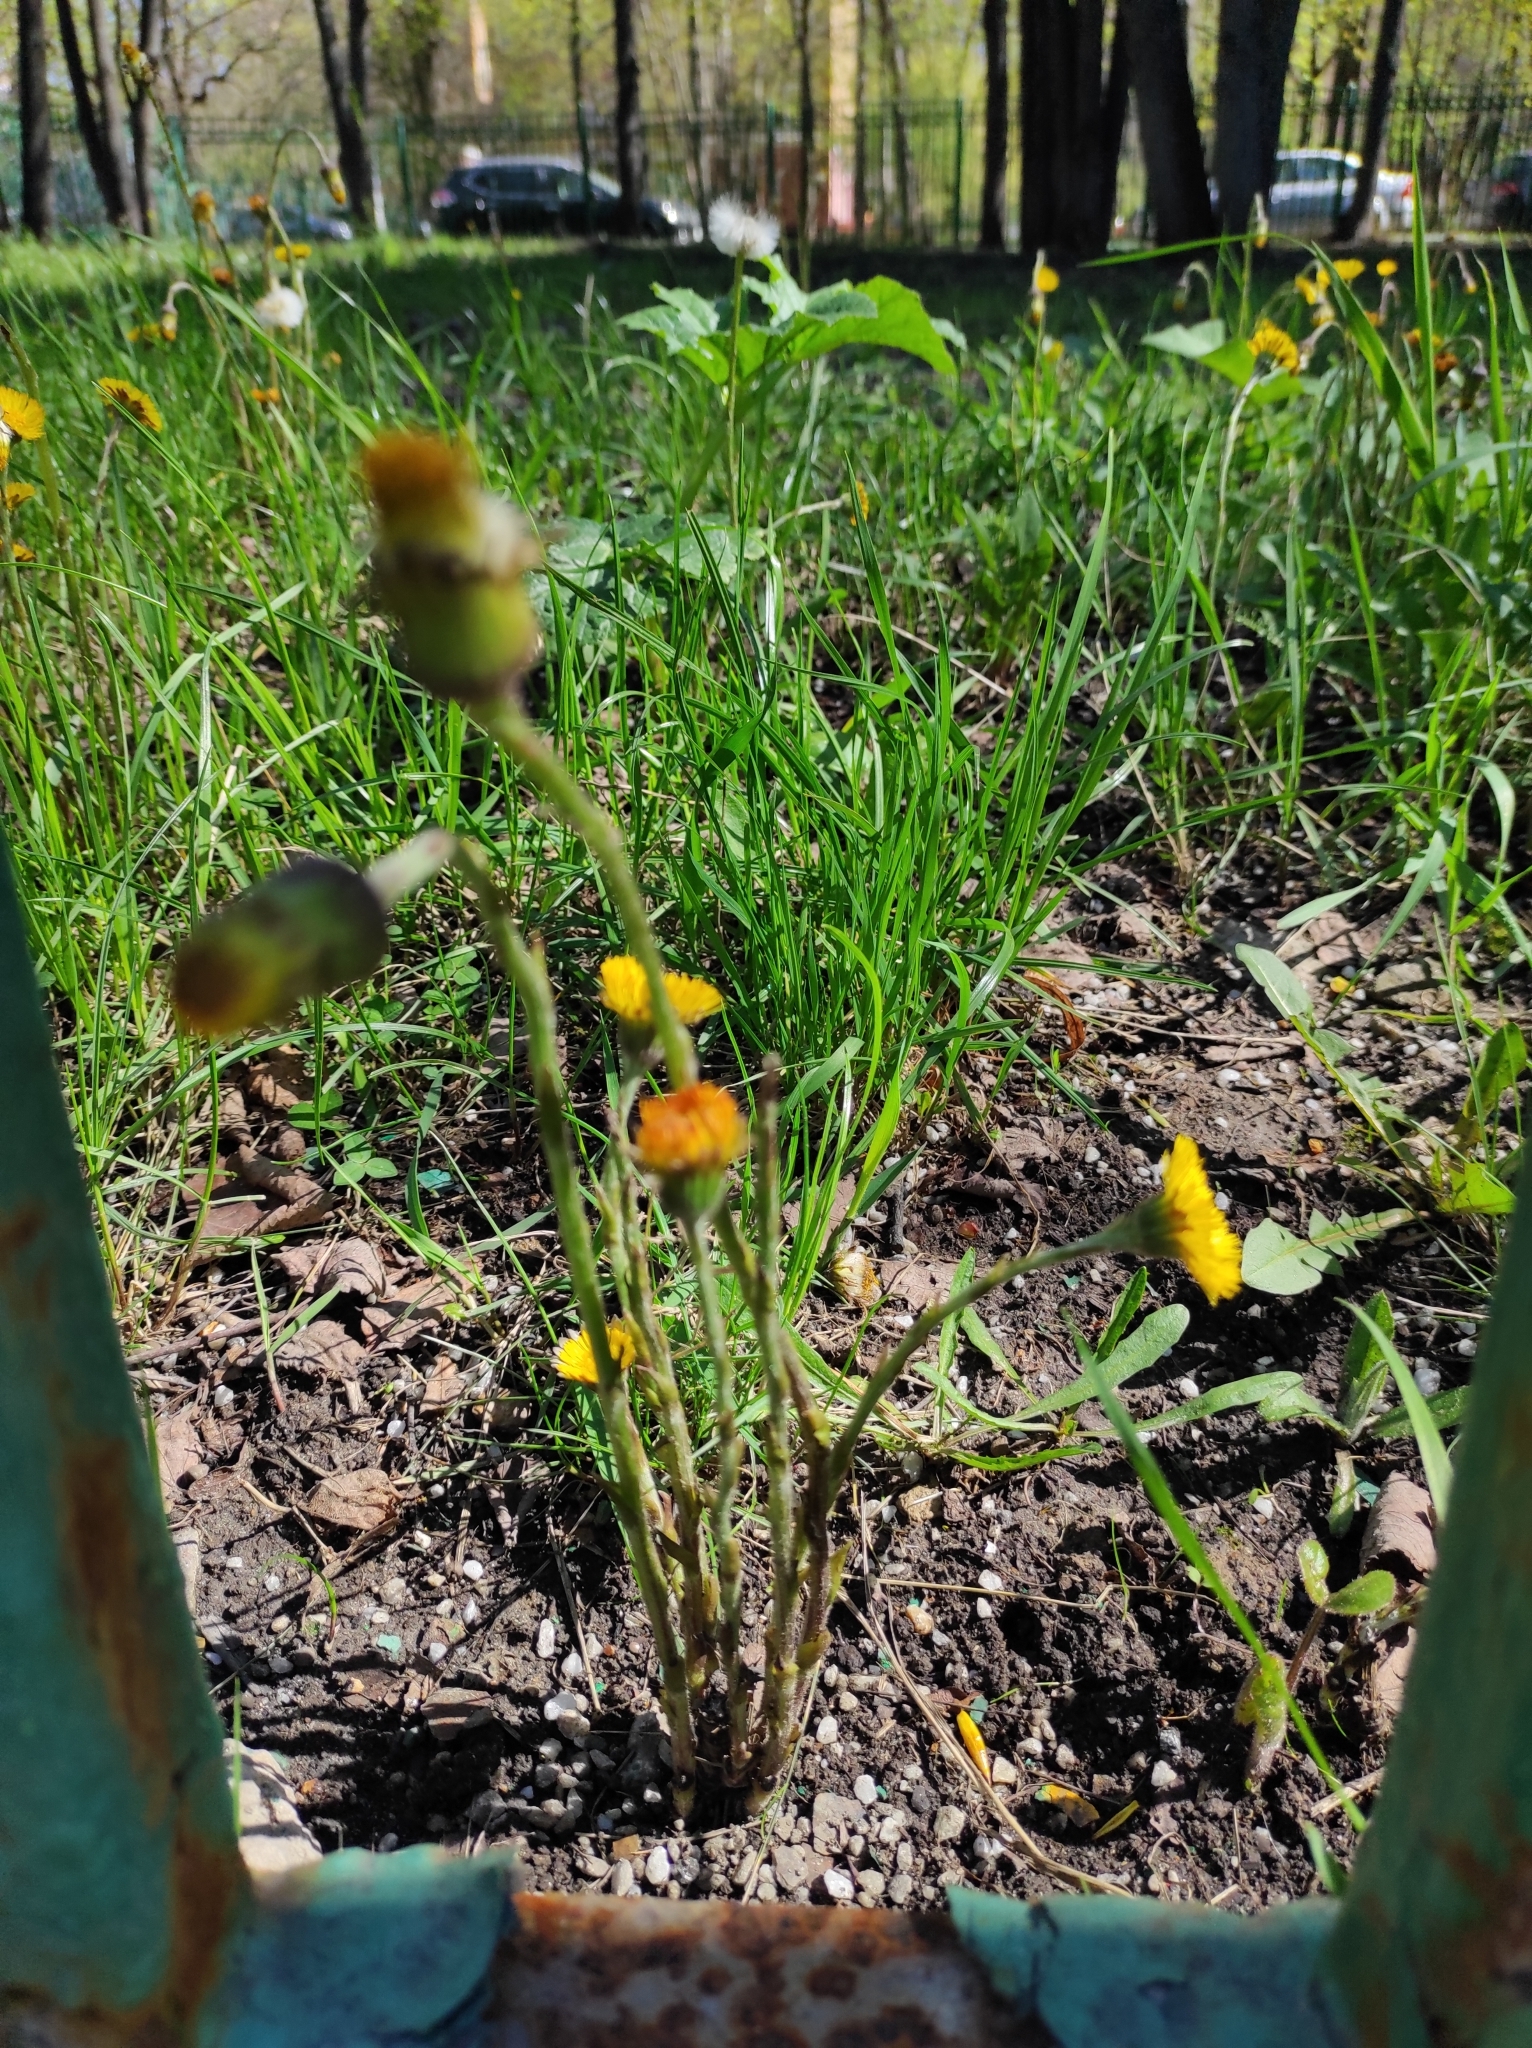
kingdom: Plantae
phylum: Tracheophyta
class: Magnoliopsida
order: Asterales
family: Asteraceae
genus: Tussilago
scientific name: Tussilago farfara
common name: Coltsfoot
